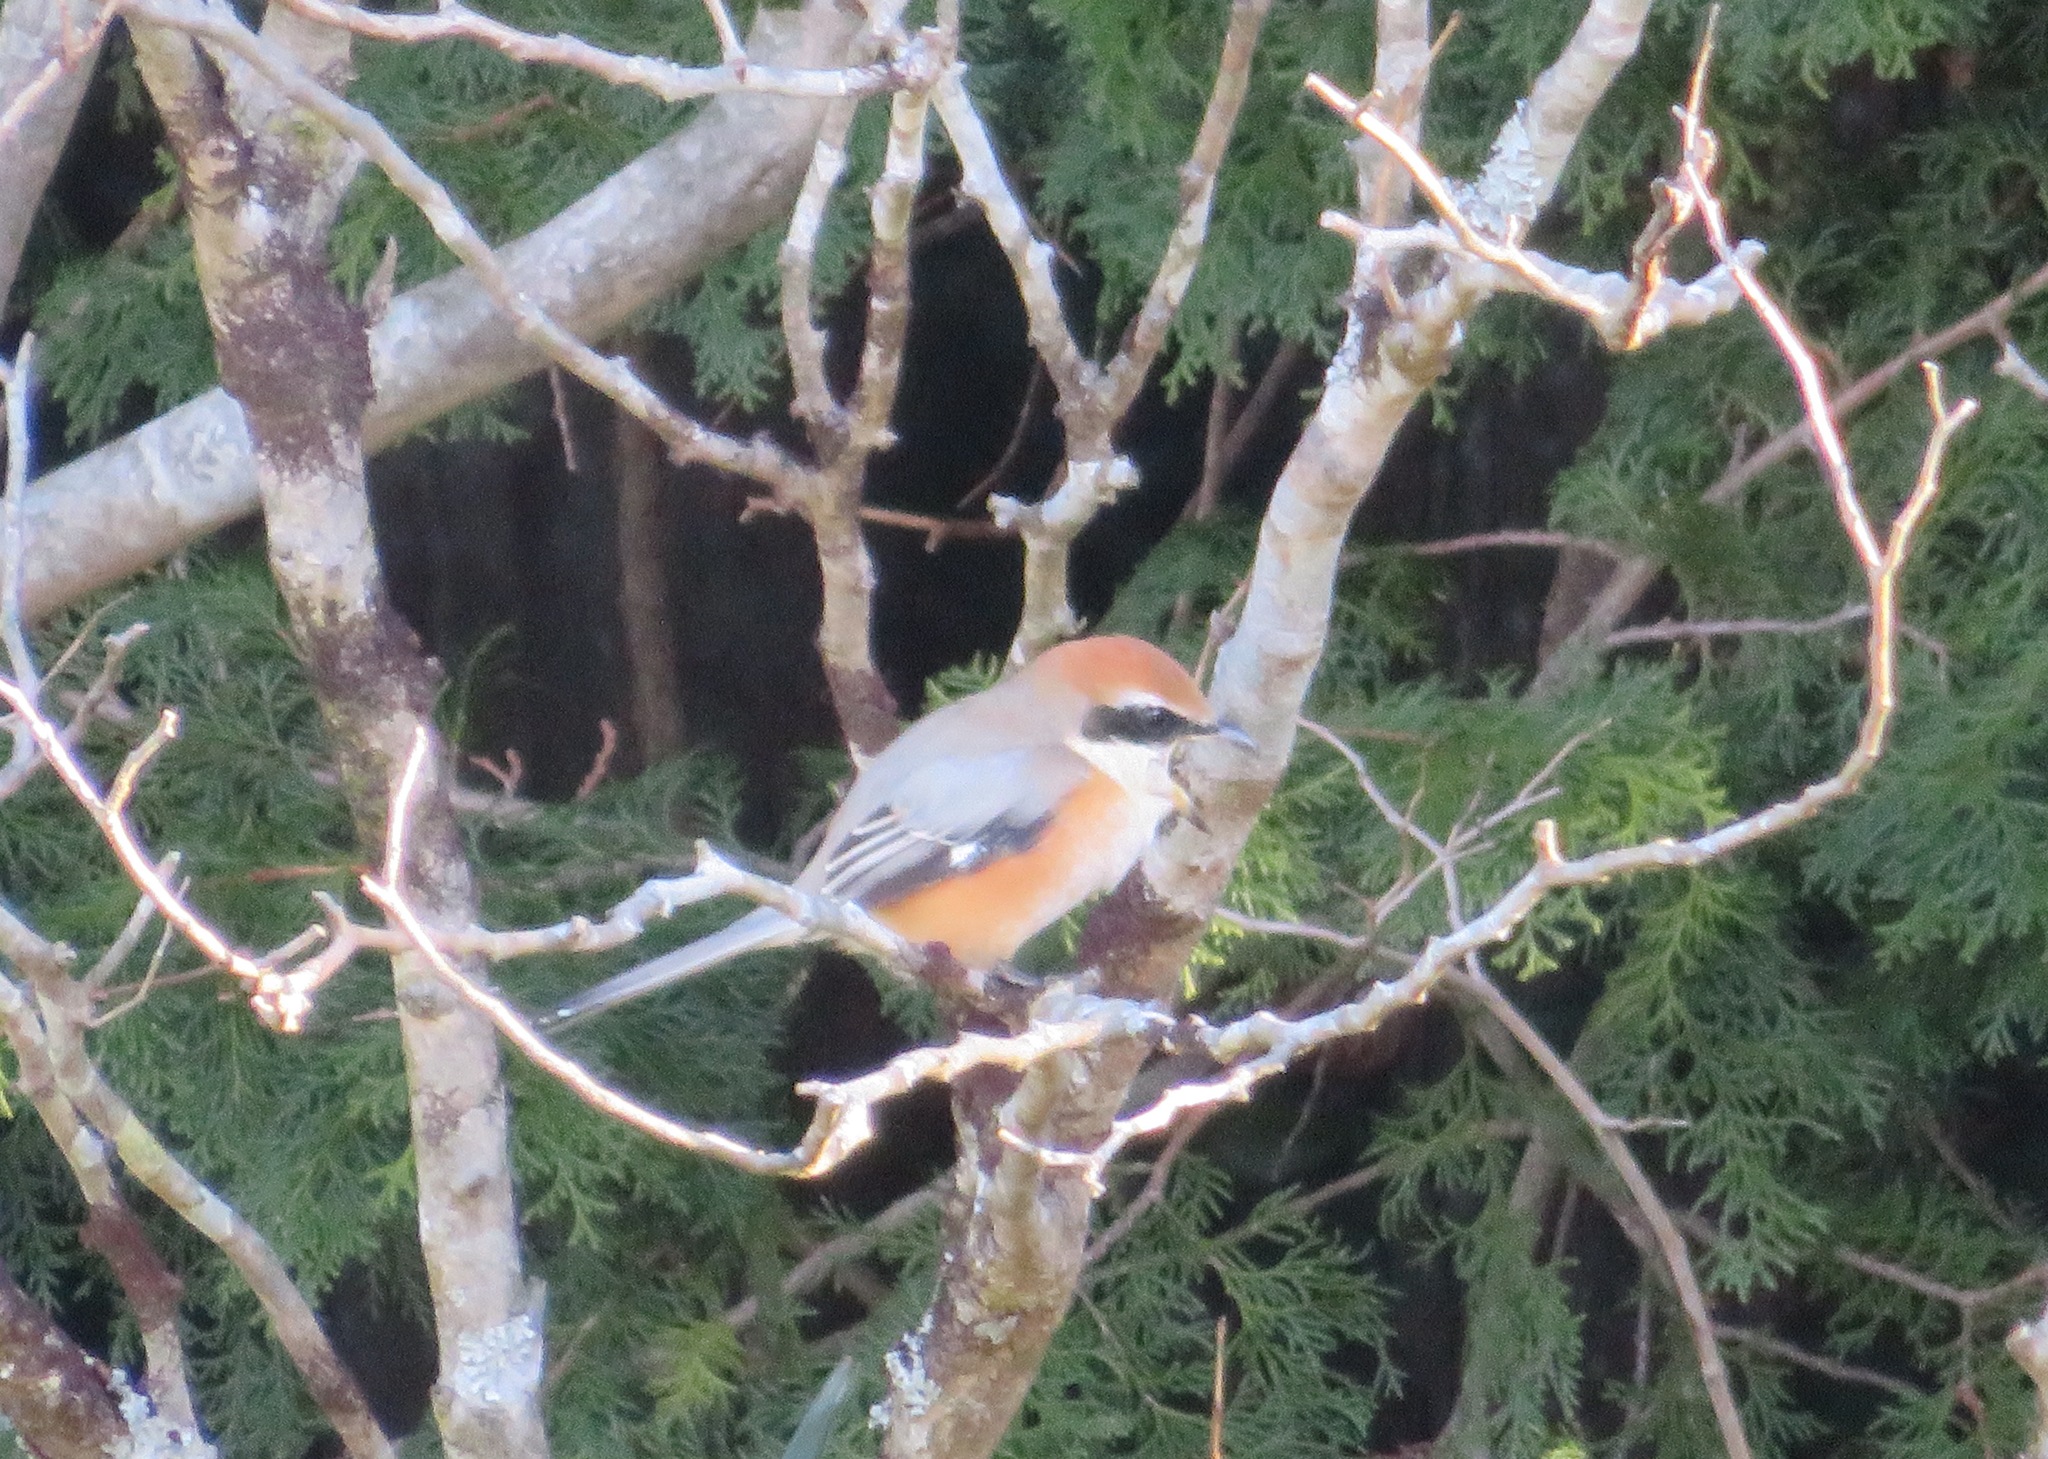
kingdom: Animalia
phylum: Chordata
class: Aves
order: Passeriformes
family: Laniidae
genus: Lanius
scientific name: Lanius bucephalus
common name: Bull-headed shrike
